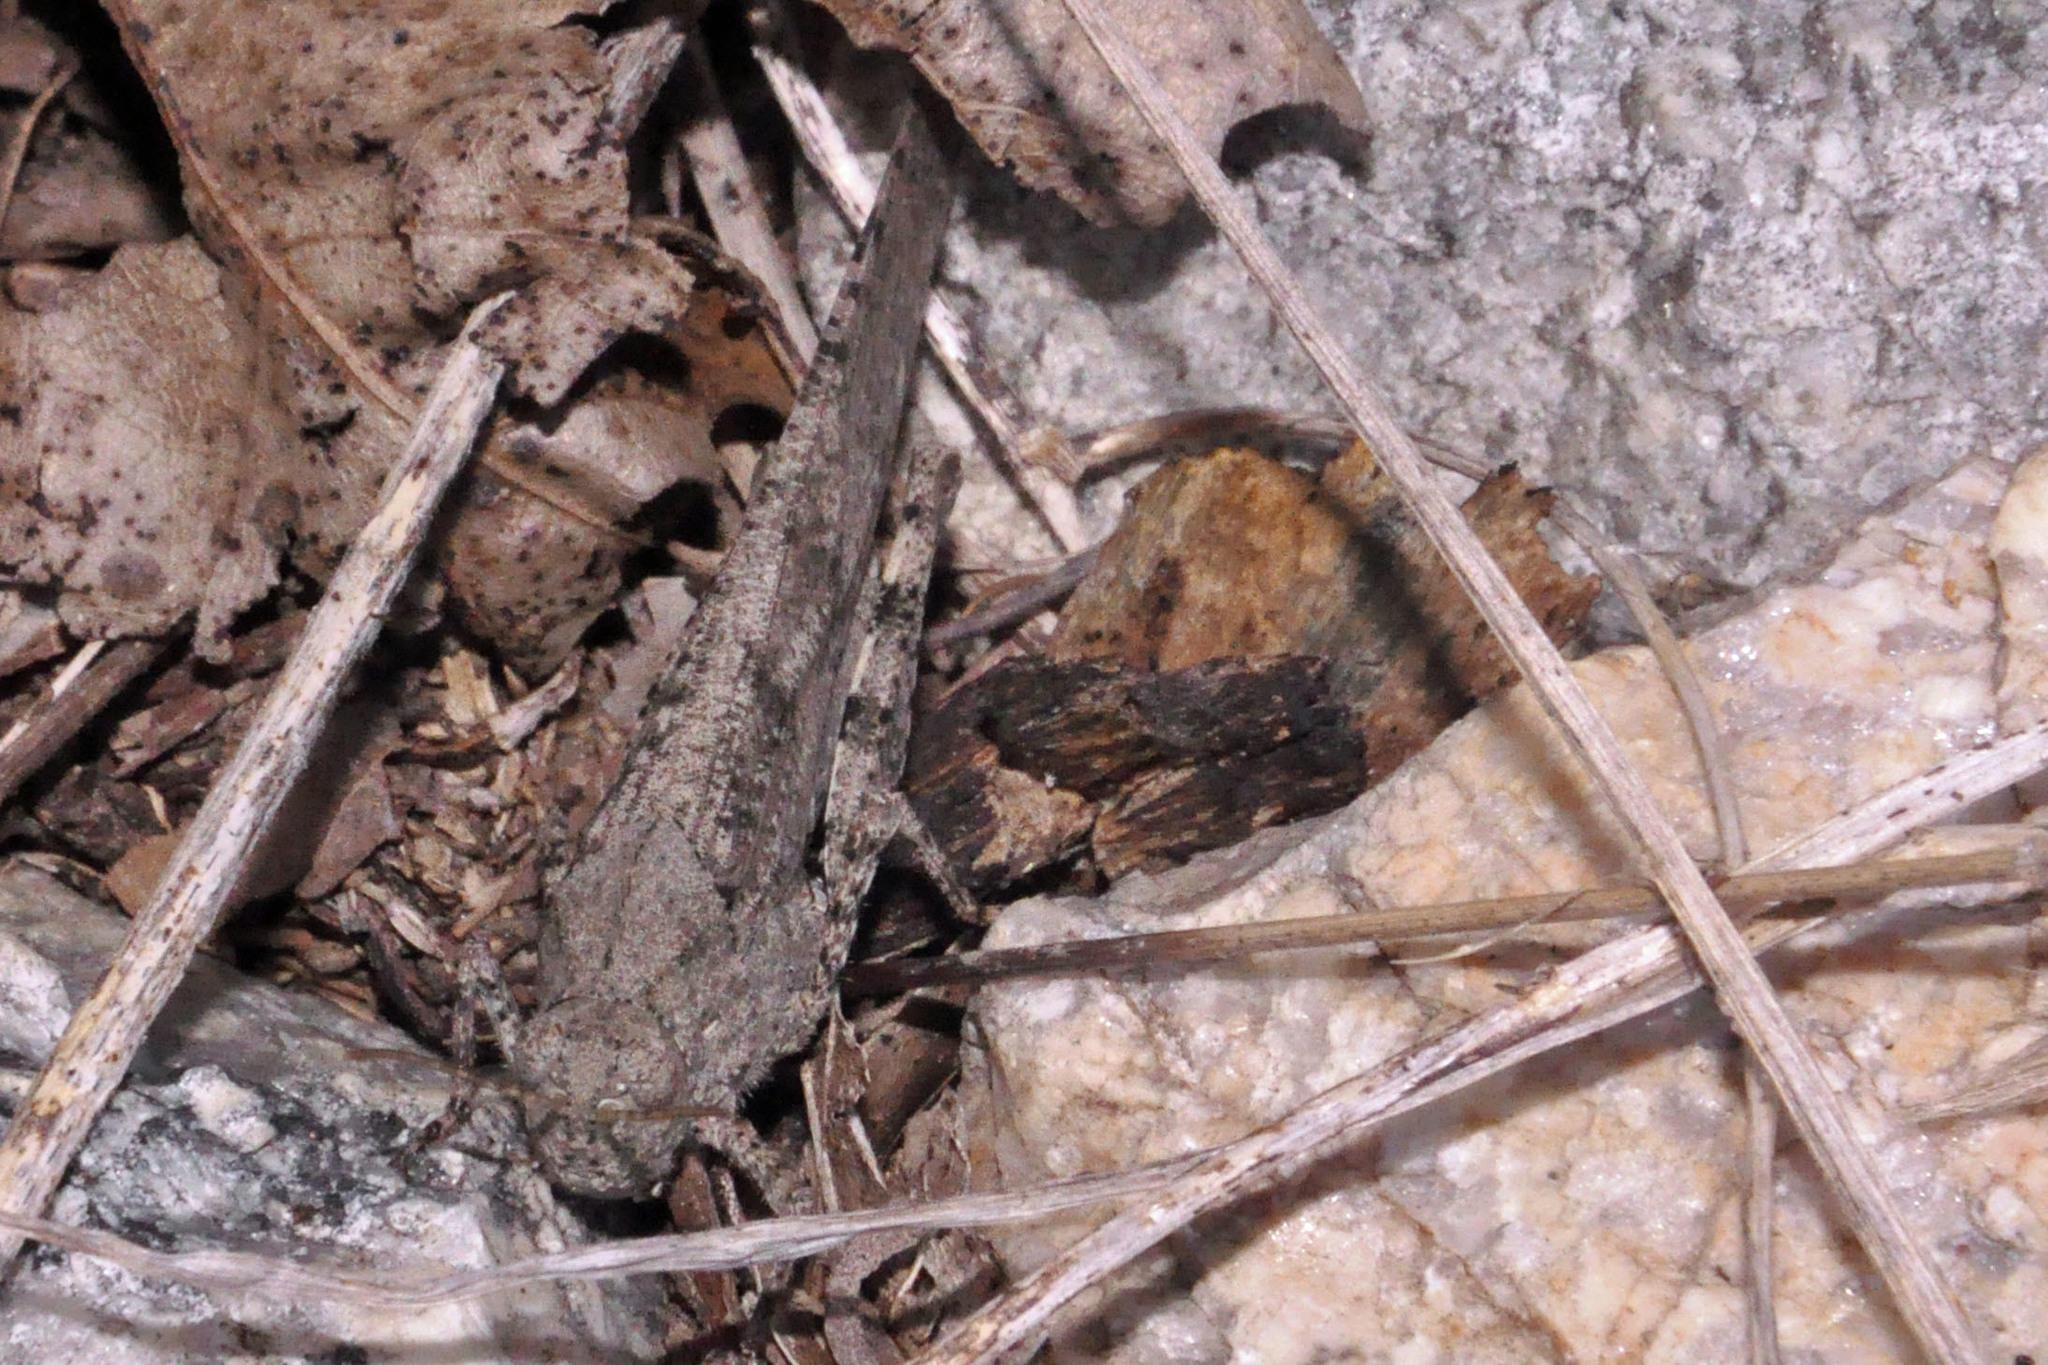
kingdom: Animalia
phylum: Arthropoda
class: Insecta
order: Orthoptera
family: Acrididae
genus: Dissosteira
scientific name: Dissosteira carolina
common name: Carolina grasshopper
